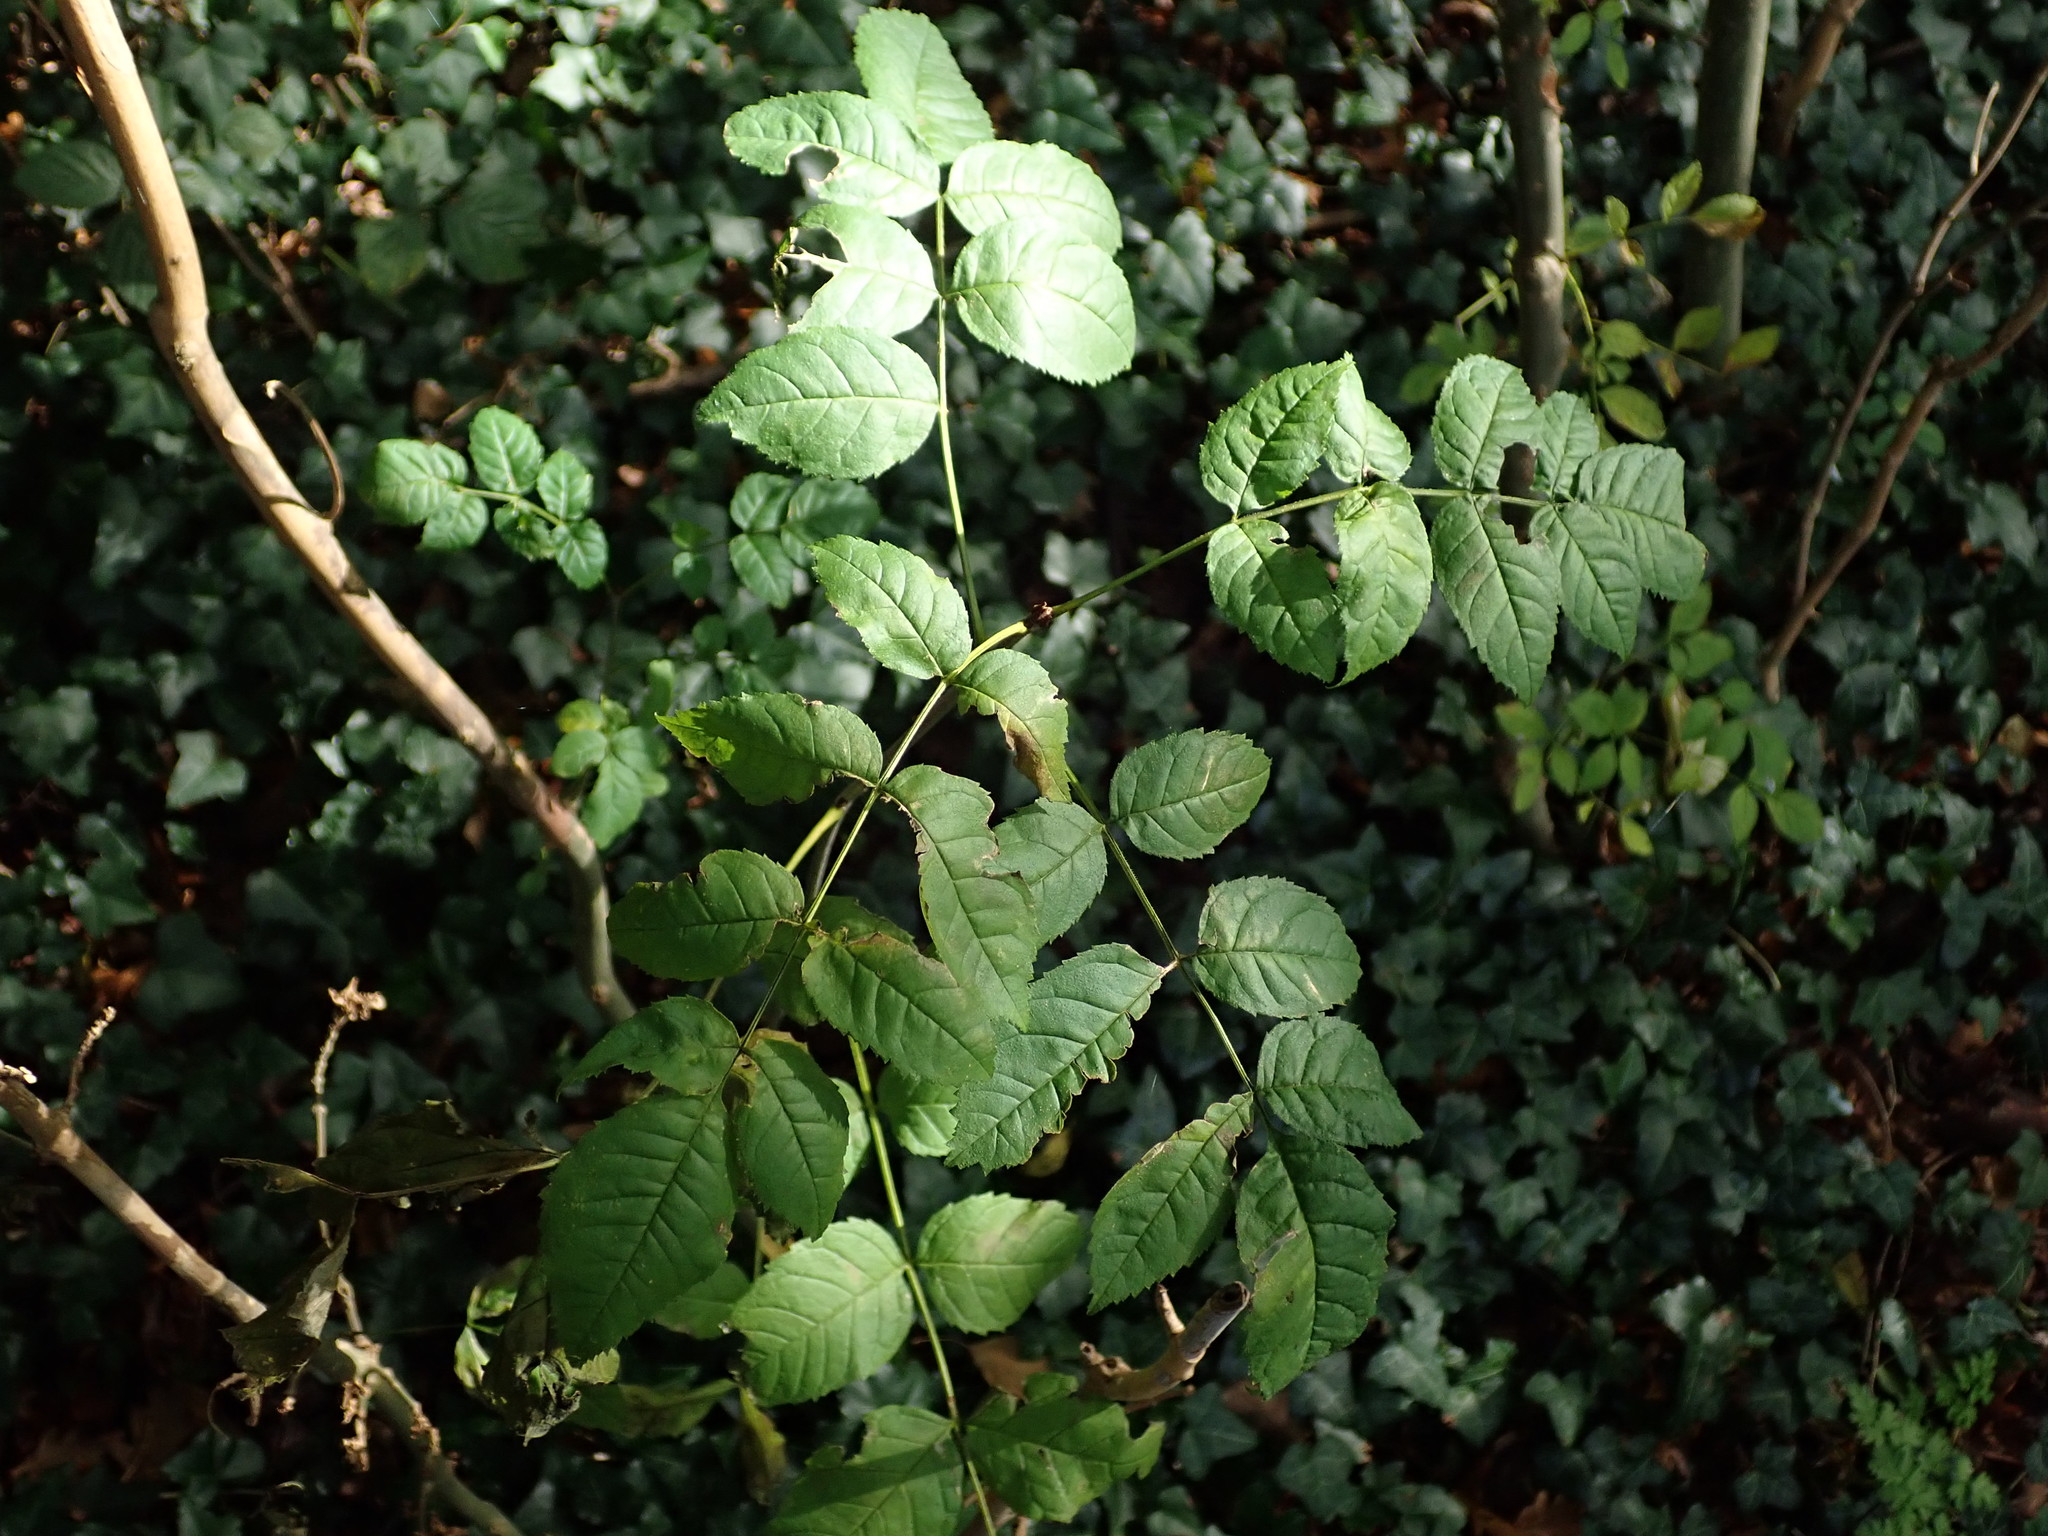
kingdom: Plantae
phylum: Tracheophyta
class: Magnoliopsida
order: Lamiales
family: Oleaceae
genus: Fraxinus
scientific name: Fraxinus excelsior
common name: European ash
